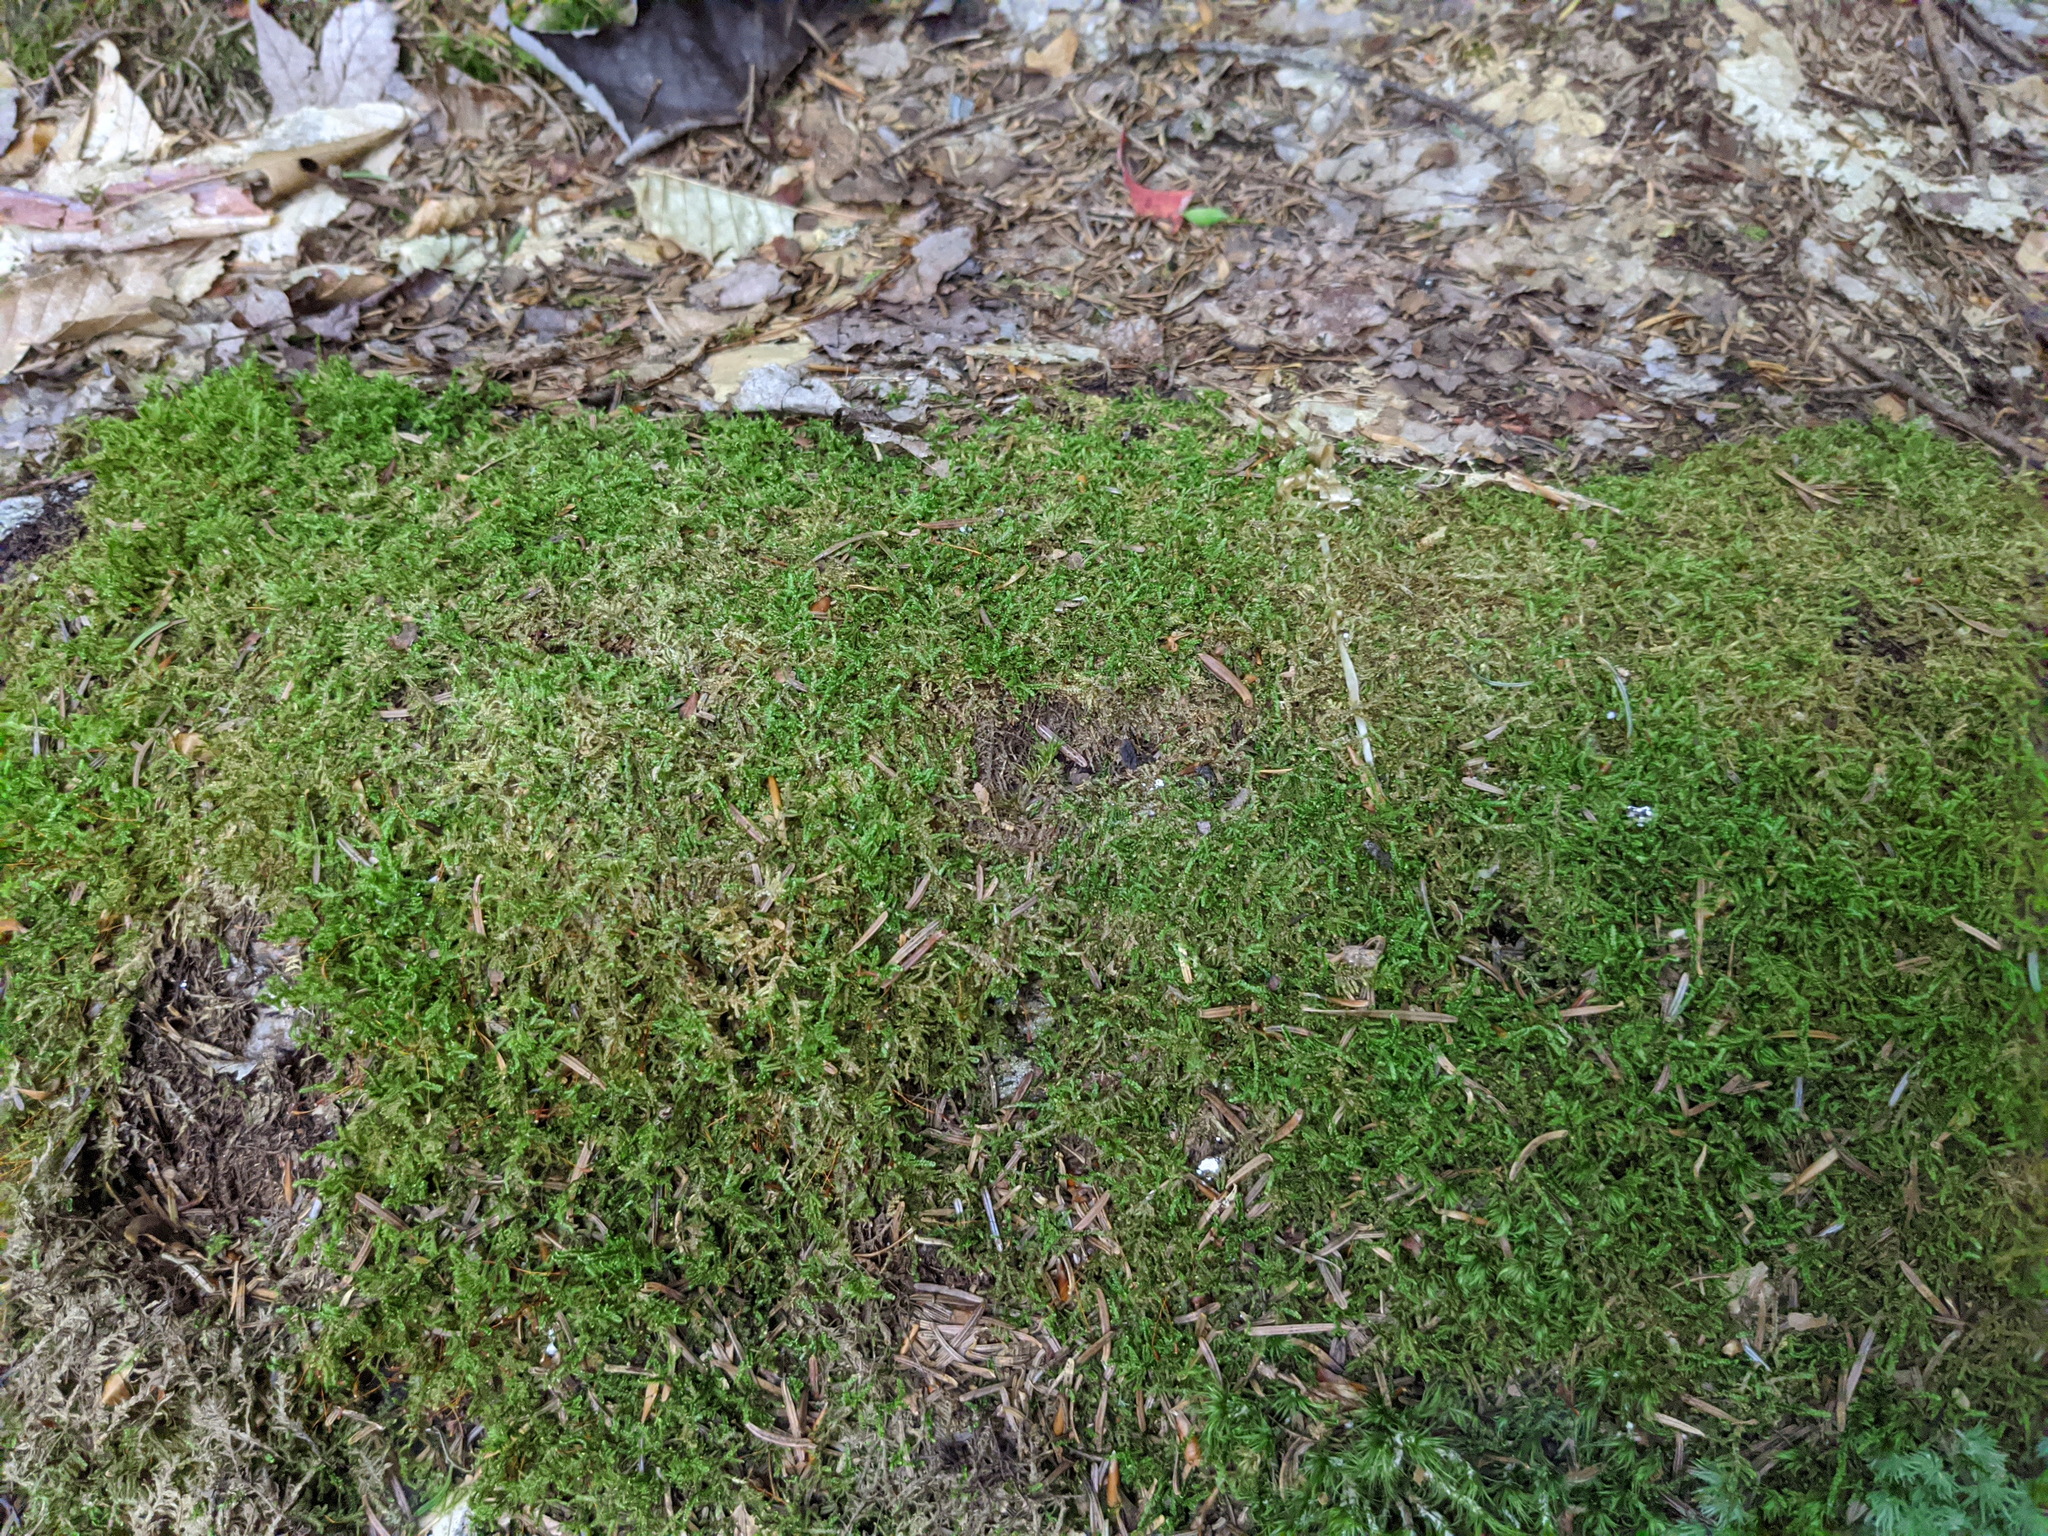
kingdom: Plantae
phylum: Bryophyta
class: Bryopsida
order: Hypnales
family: Callicladiaceae
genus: Callicladium
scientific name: Callicladium imponens
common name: Brocade moss
